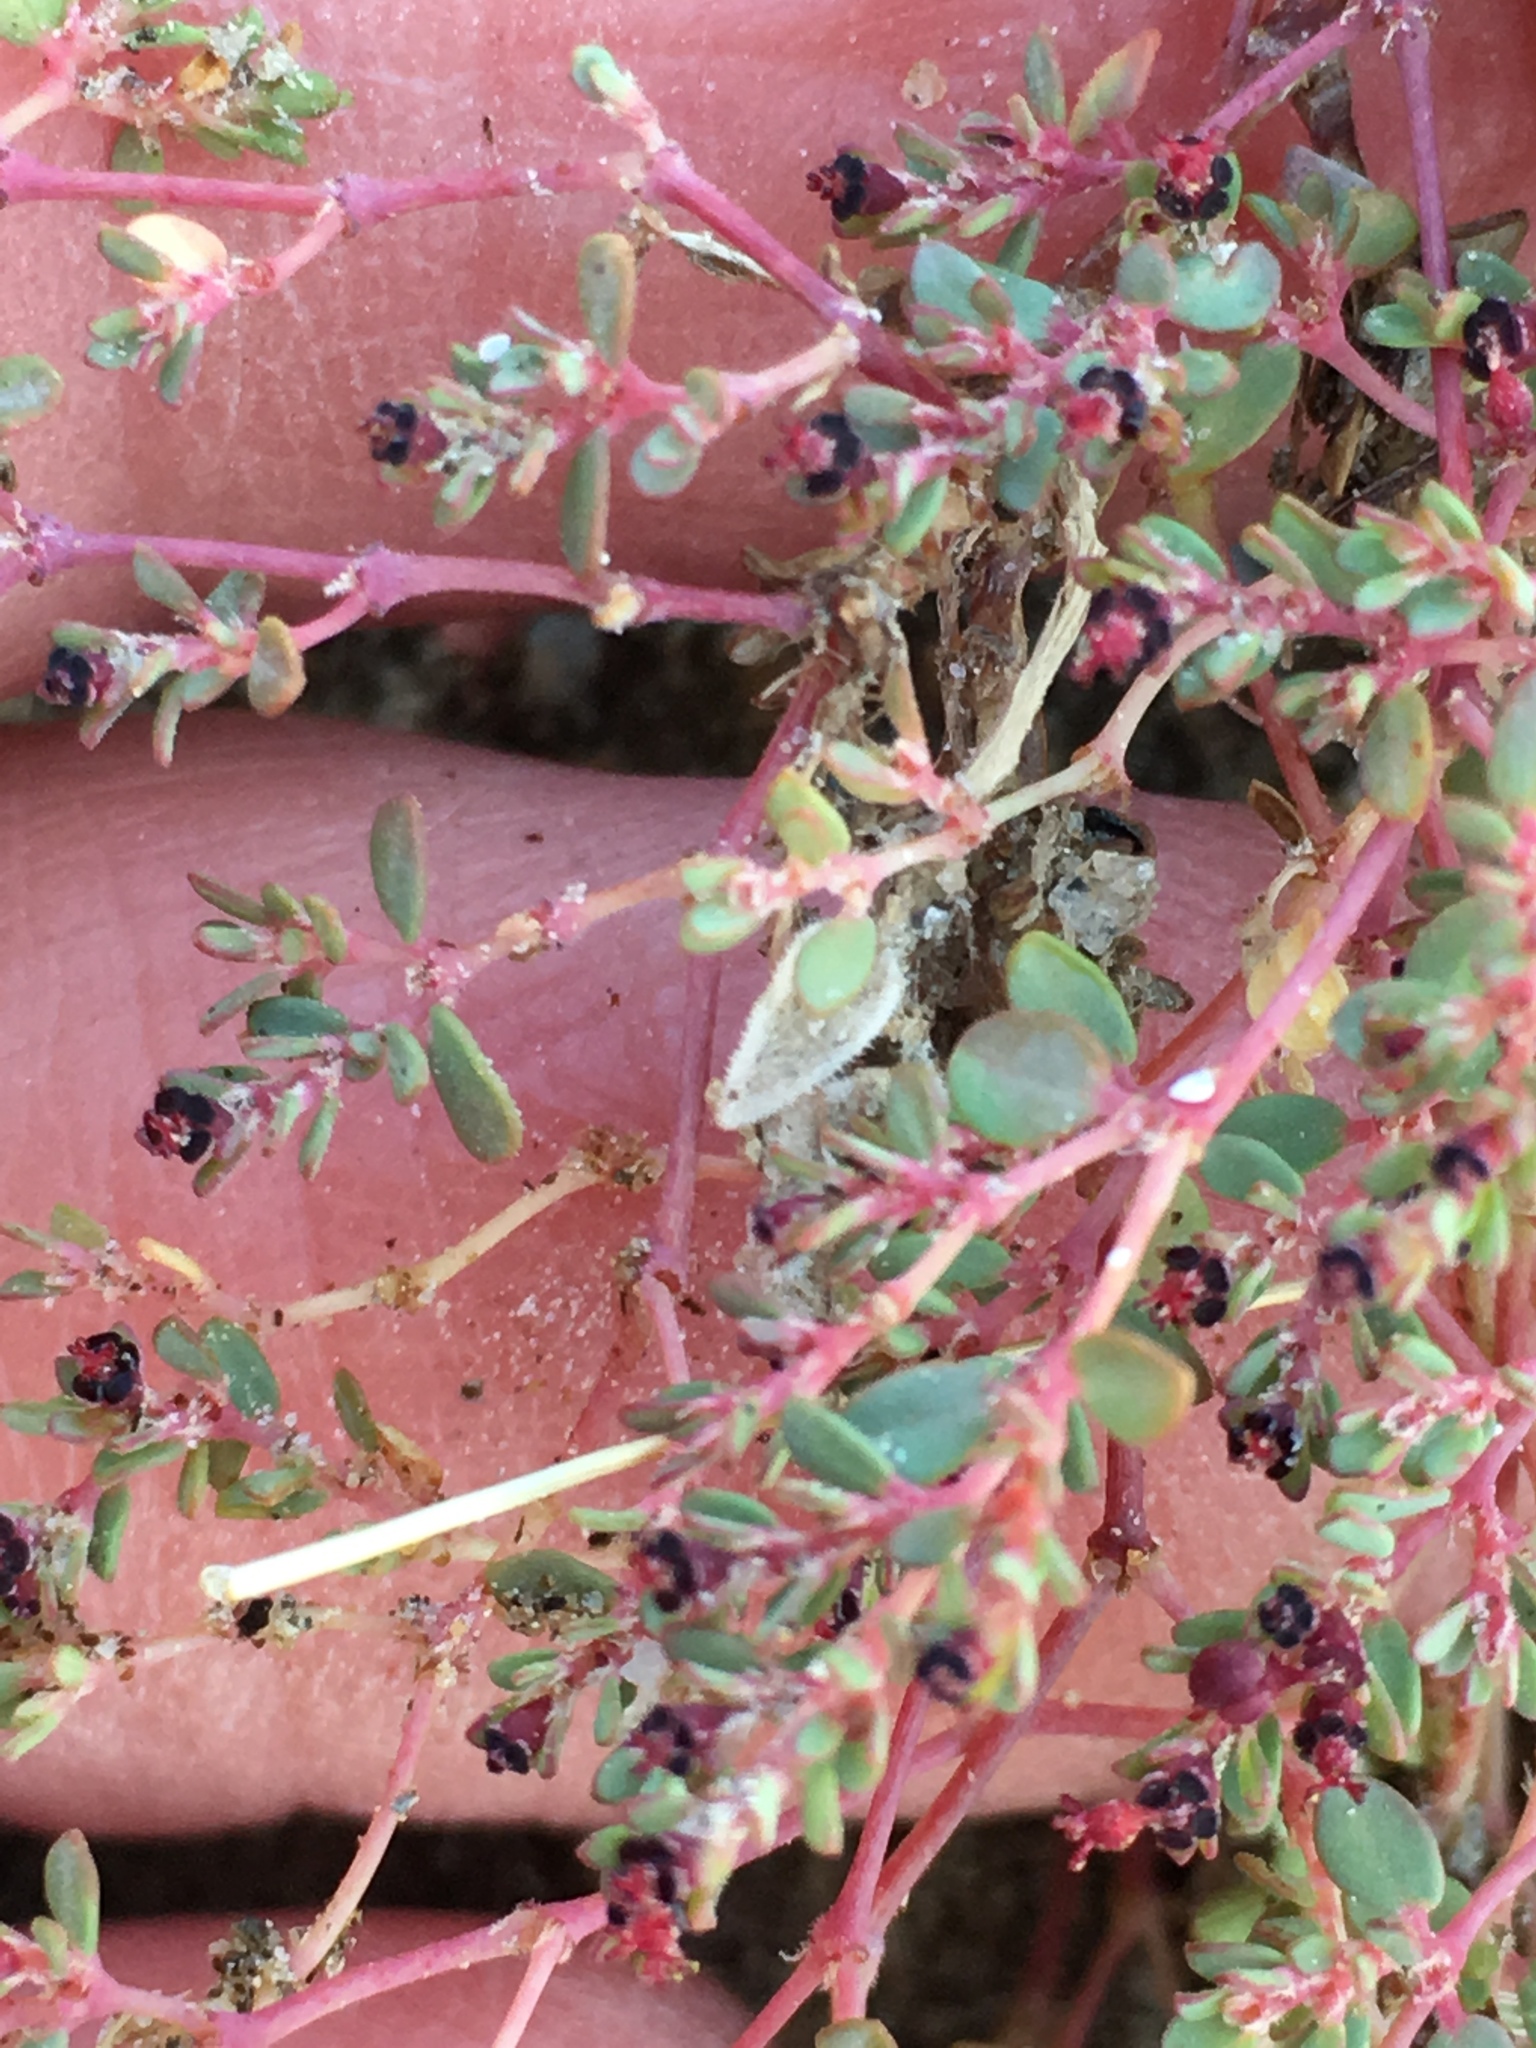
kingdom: Plantae
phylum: Tracheophyta
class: Magnoliopsida
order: Malpighiales
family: Euphorbiaceae
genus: Euphorbia
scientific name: Euphorbia polycarpa
